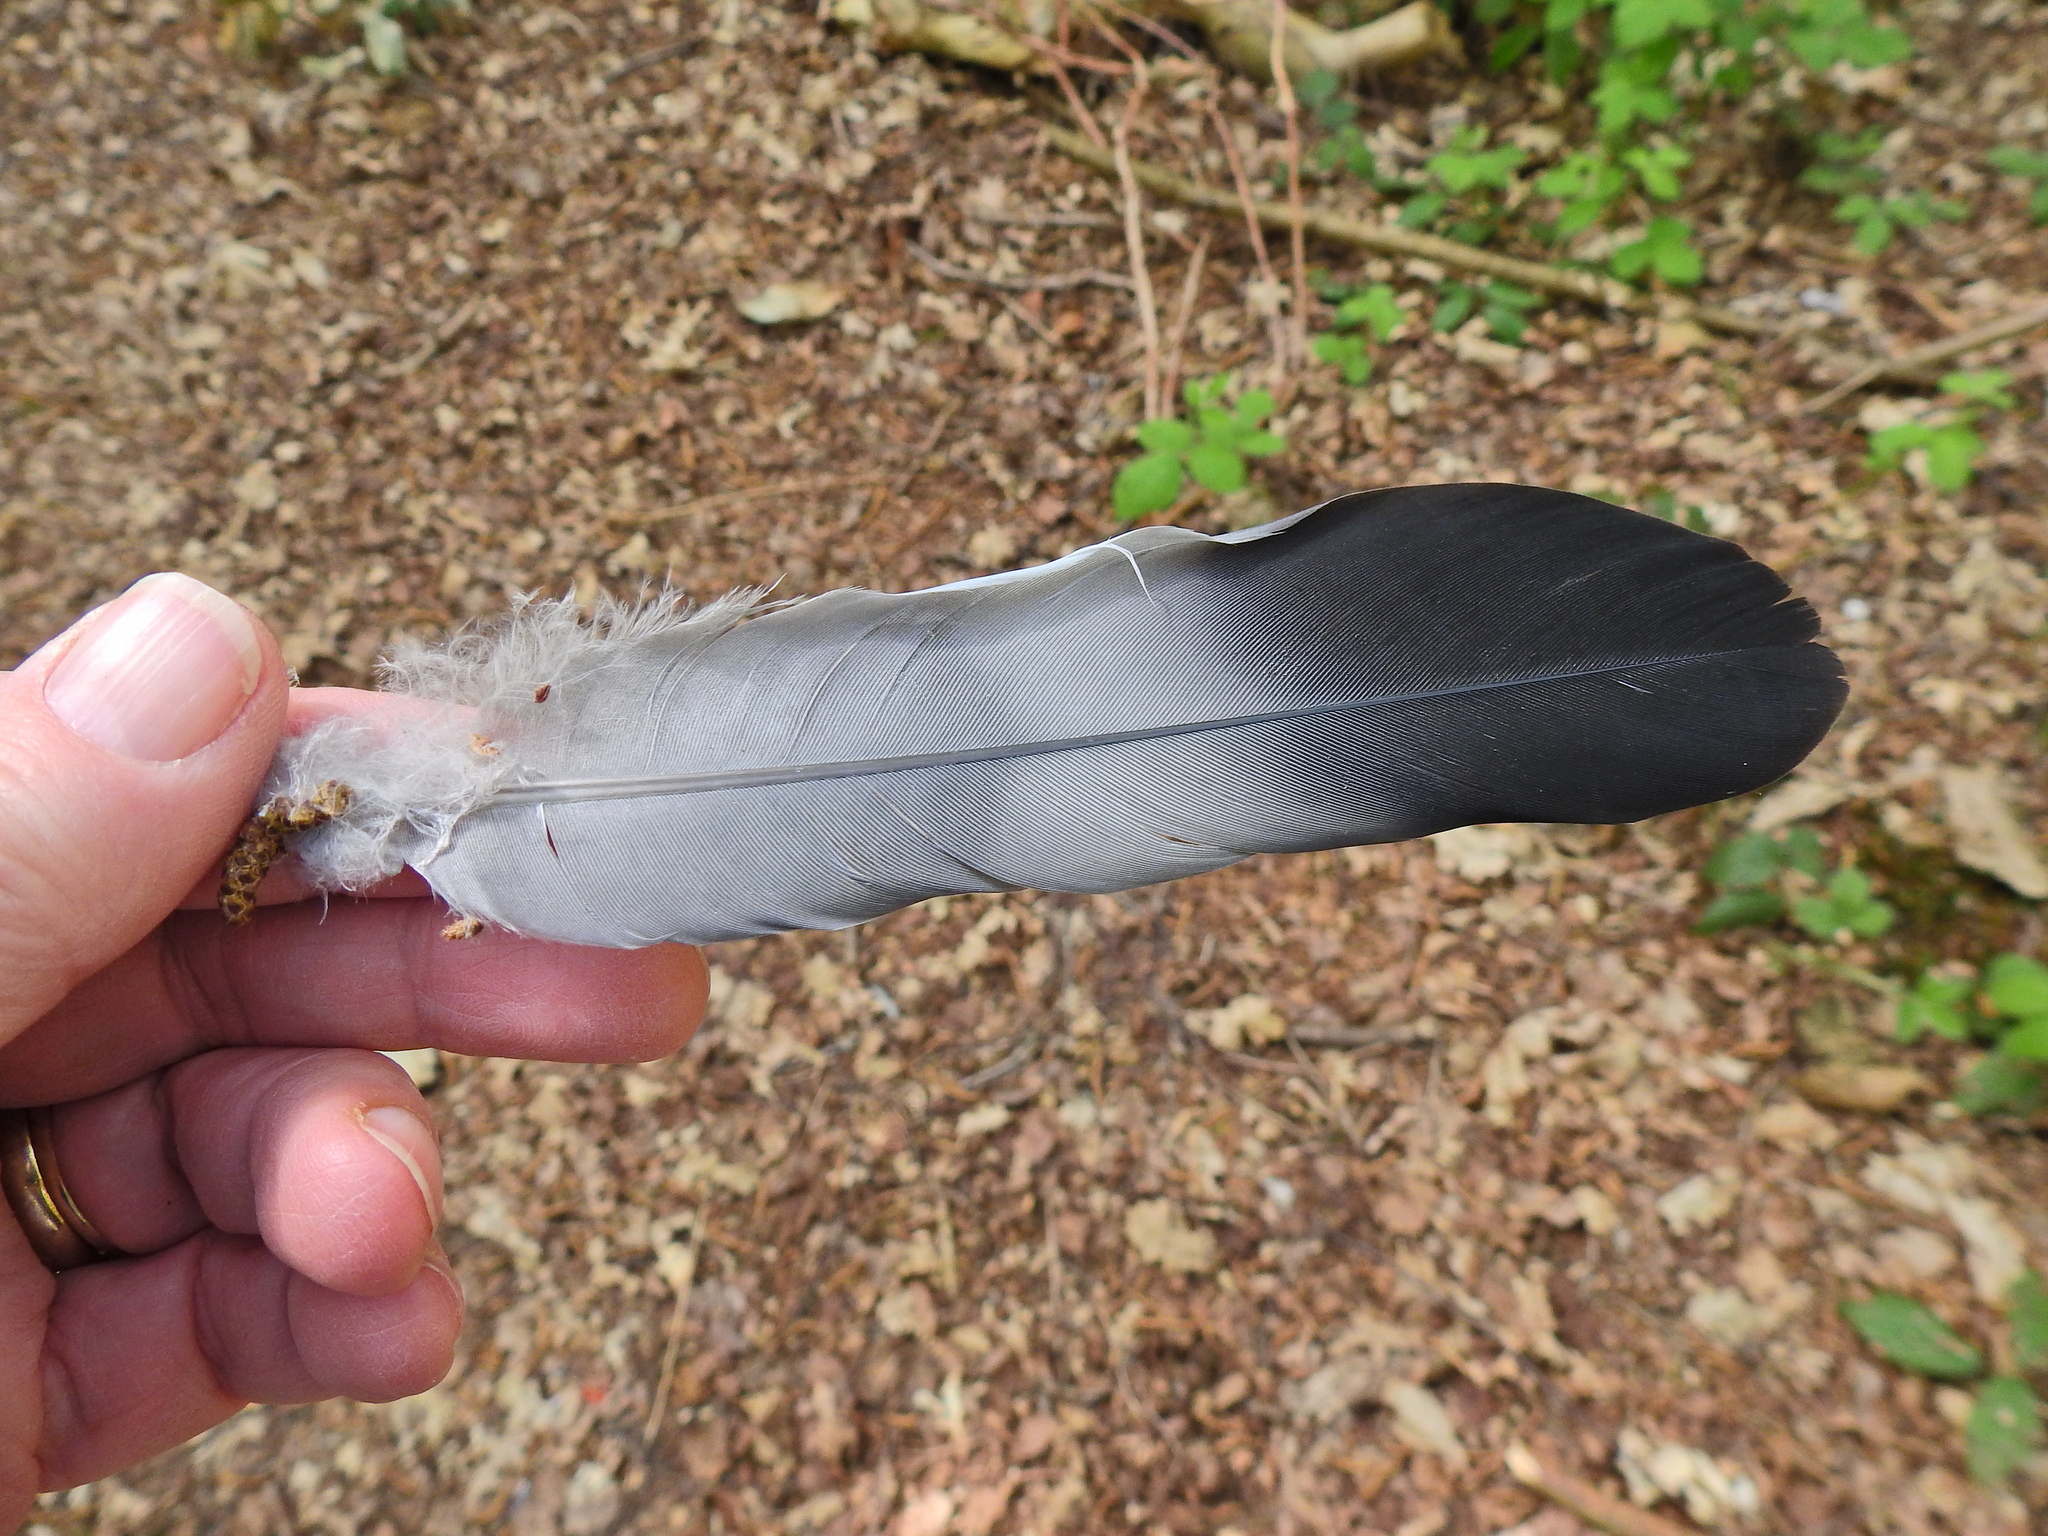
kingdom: Animalia
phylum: Chordata
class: Aves
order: Columbiformes
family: Columbidae
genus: Columba
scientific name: Columba palumbus
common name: Common wood pigeon
